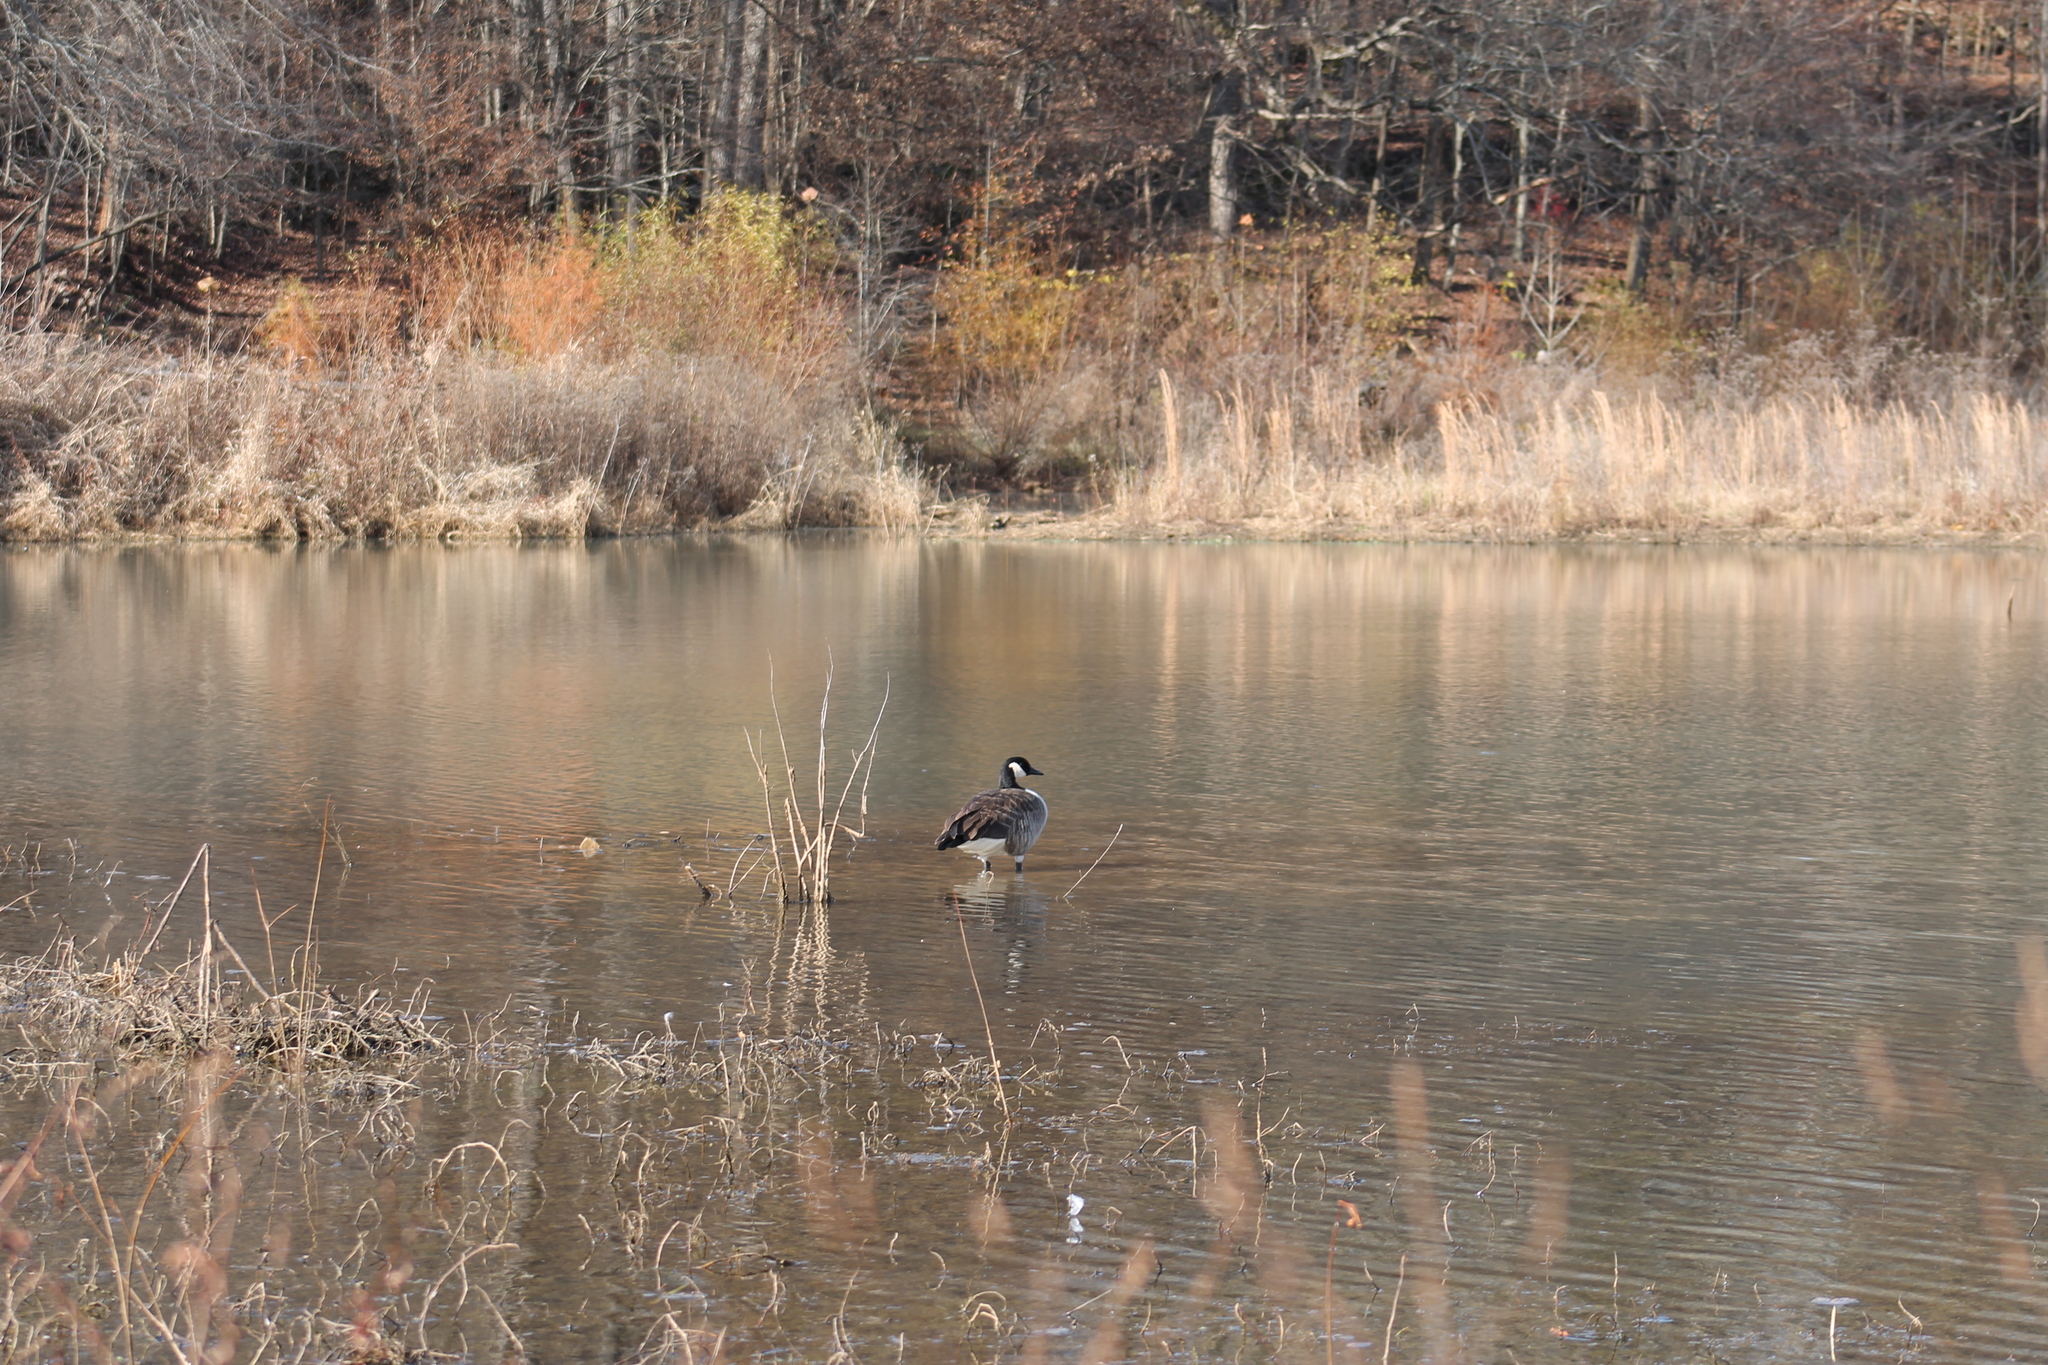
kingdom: Animalia
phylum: Chordata
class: Aves
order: Anseriformes
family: Anatidae
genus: Branta
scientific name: Branta canadensis
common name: Canada goose
